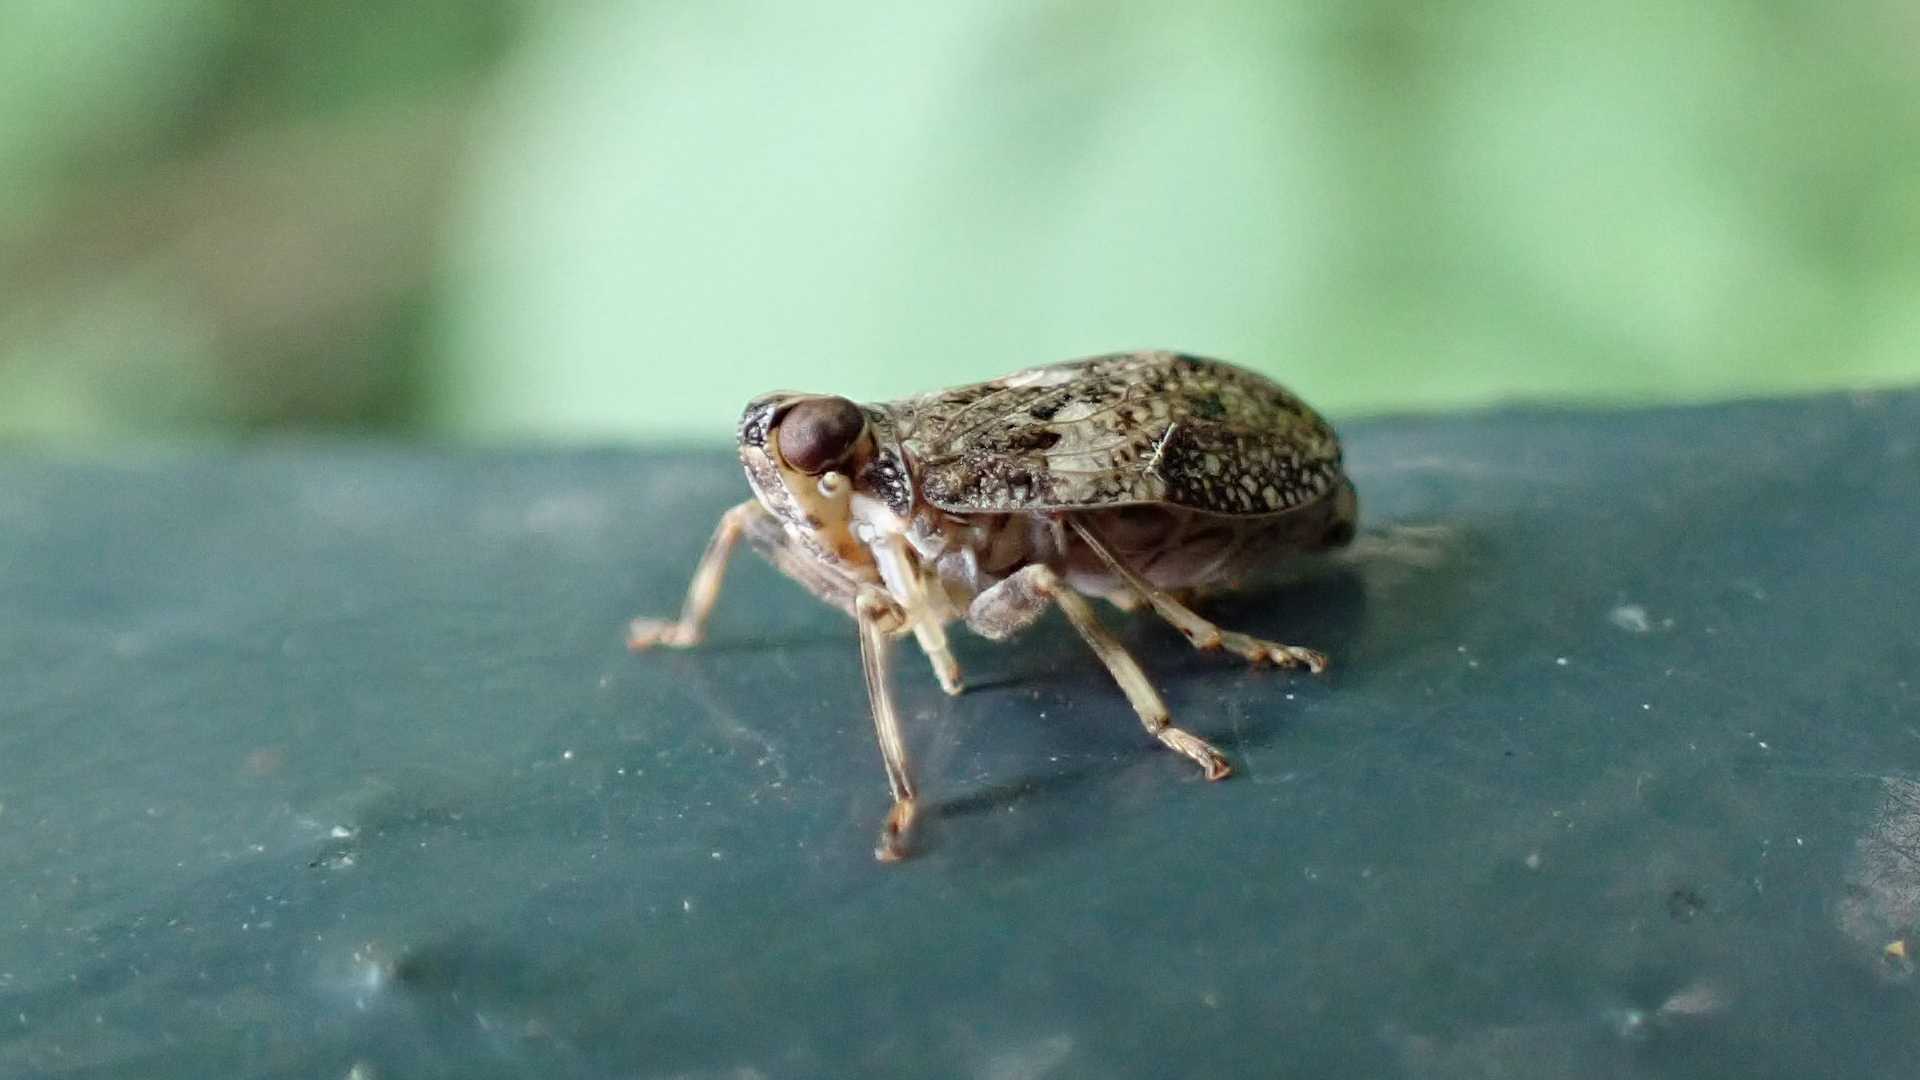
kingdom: Animalia
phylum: Arthropoda
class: Insecta
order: Hemiptera
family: Issidae
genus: Issus
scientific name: Issus coleoptratus
